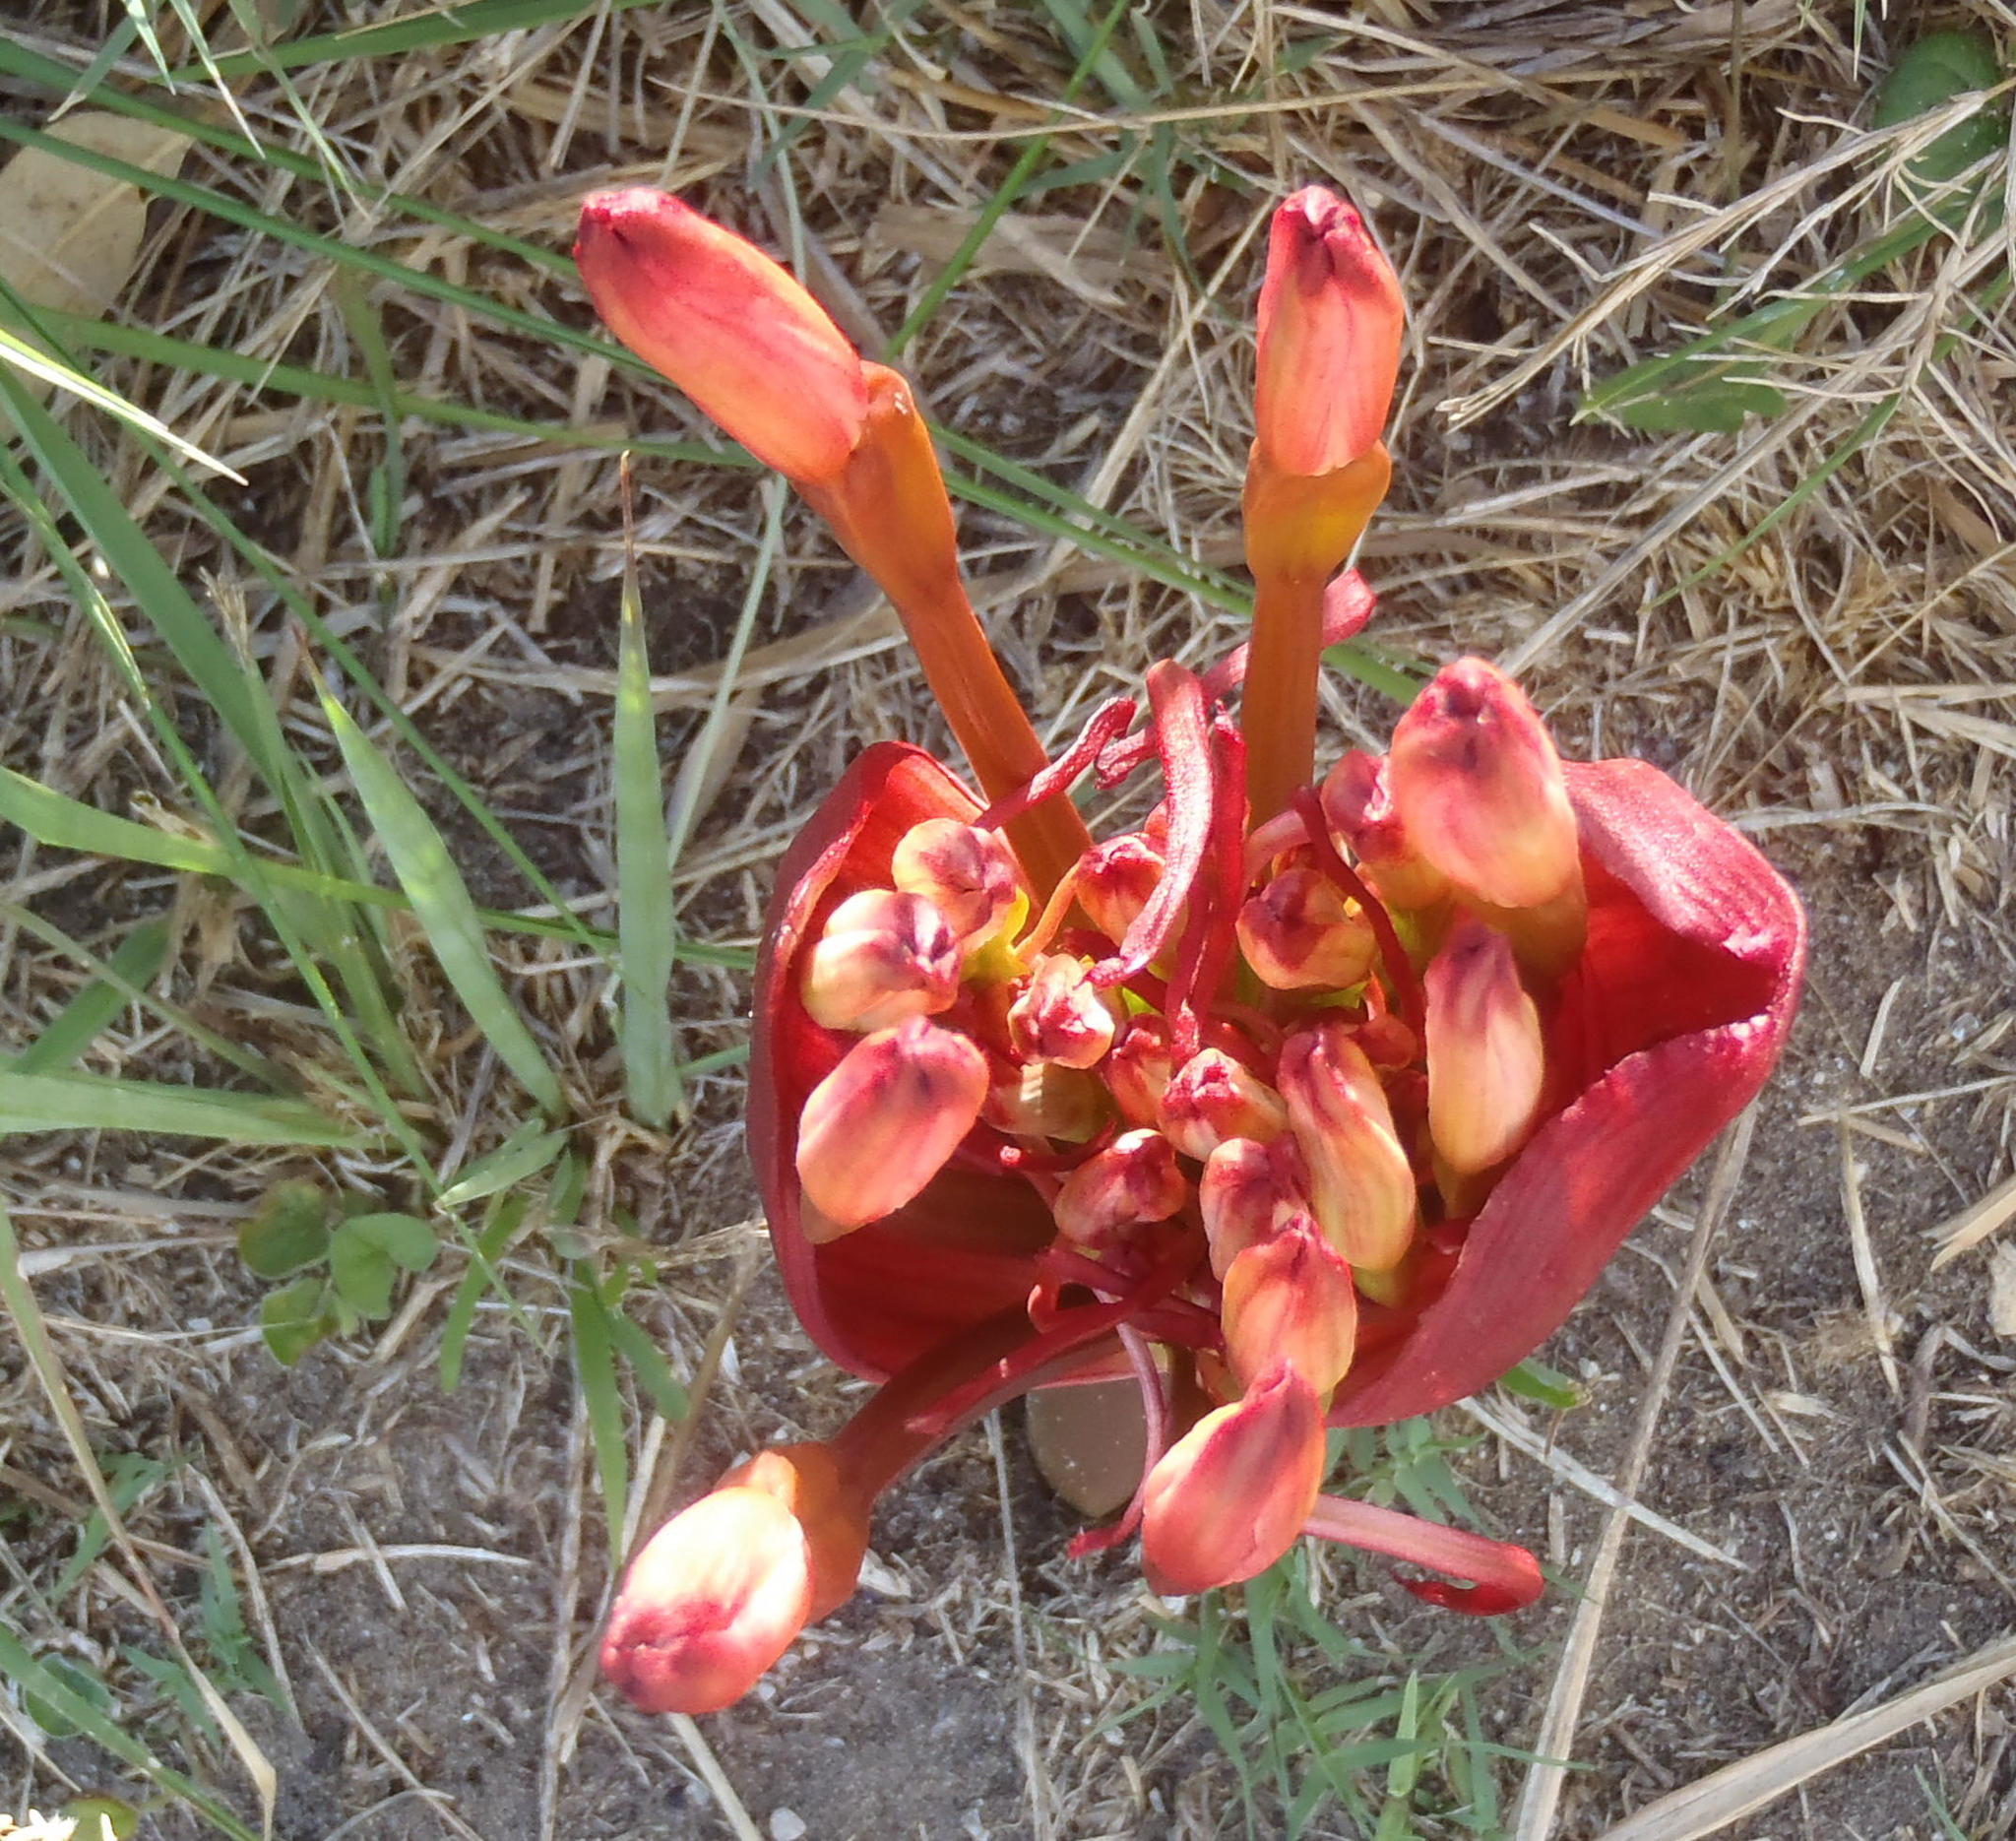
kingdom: Plantae
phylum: Tracheophyta
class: Liliopsida
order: Asparagales
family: Amaryllidaceae
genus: Brunsvigia
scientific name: Brunsvigia orientalis
